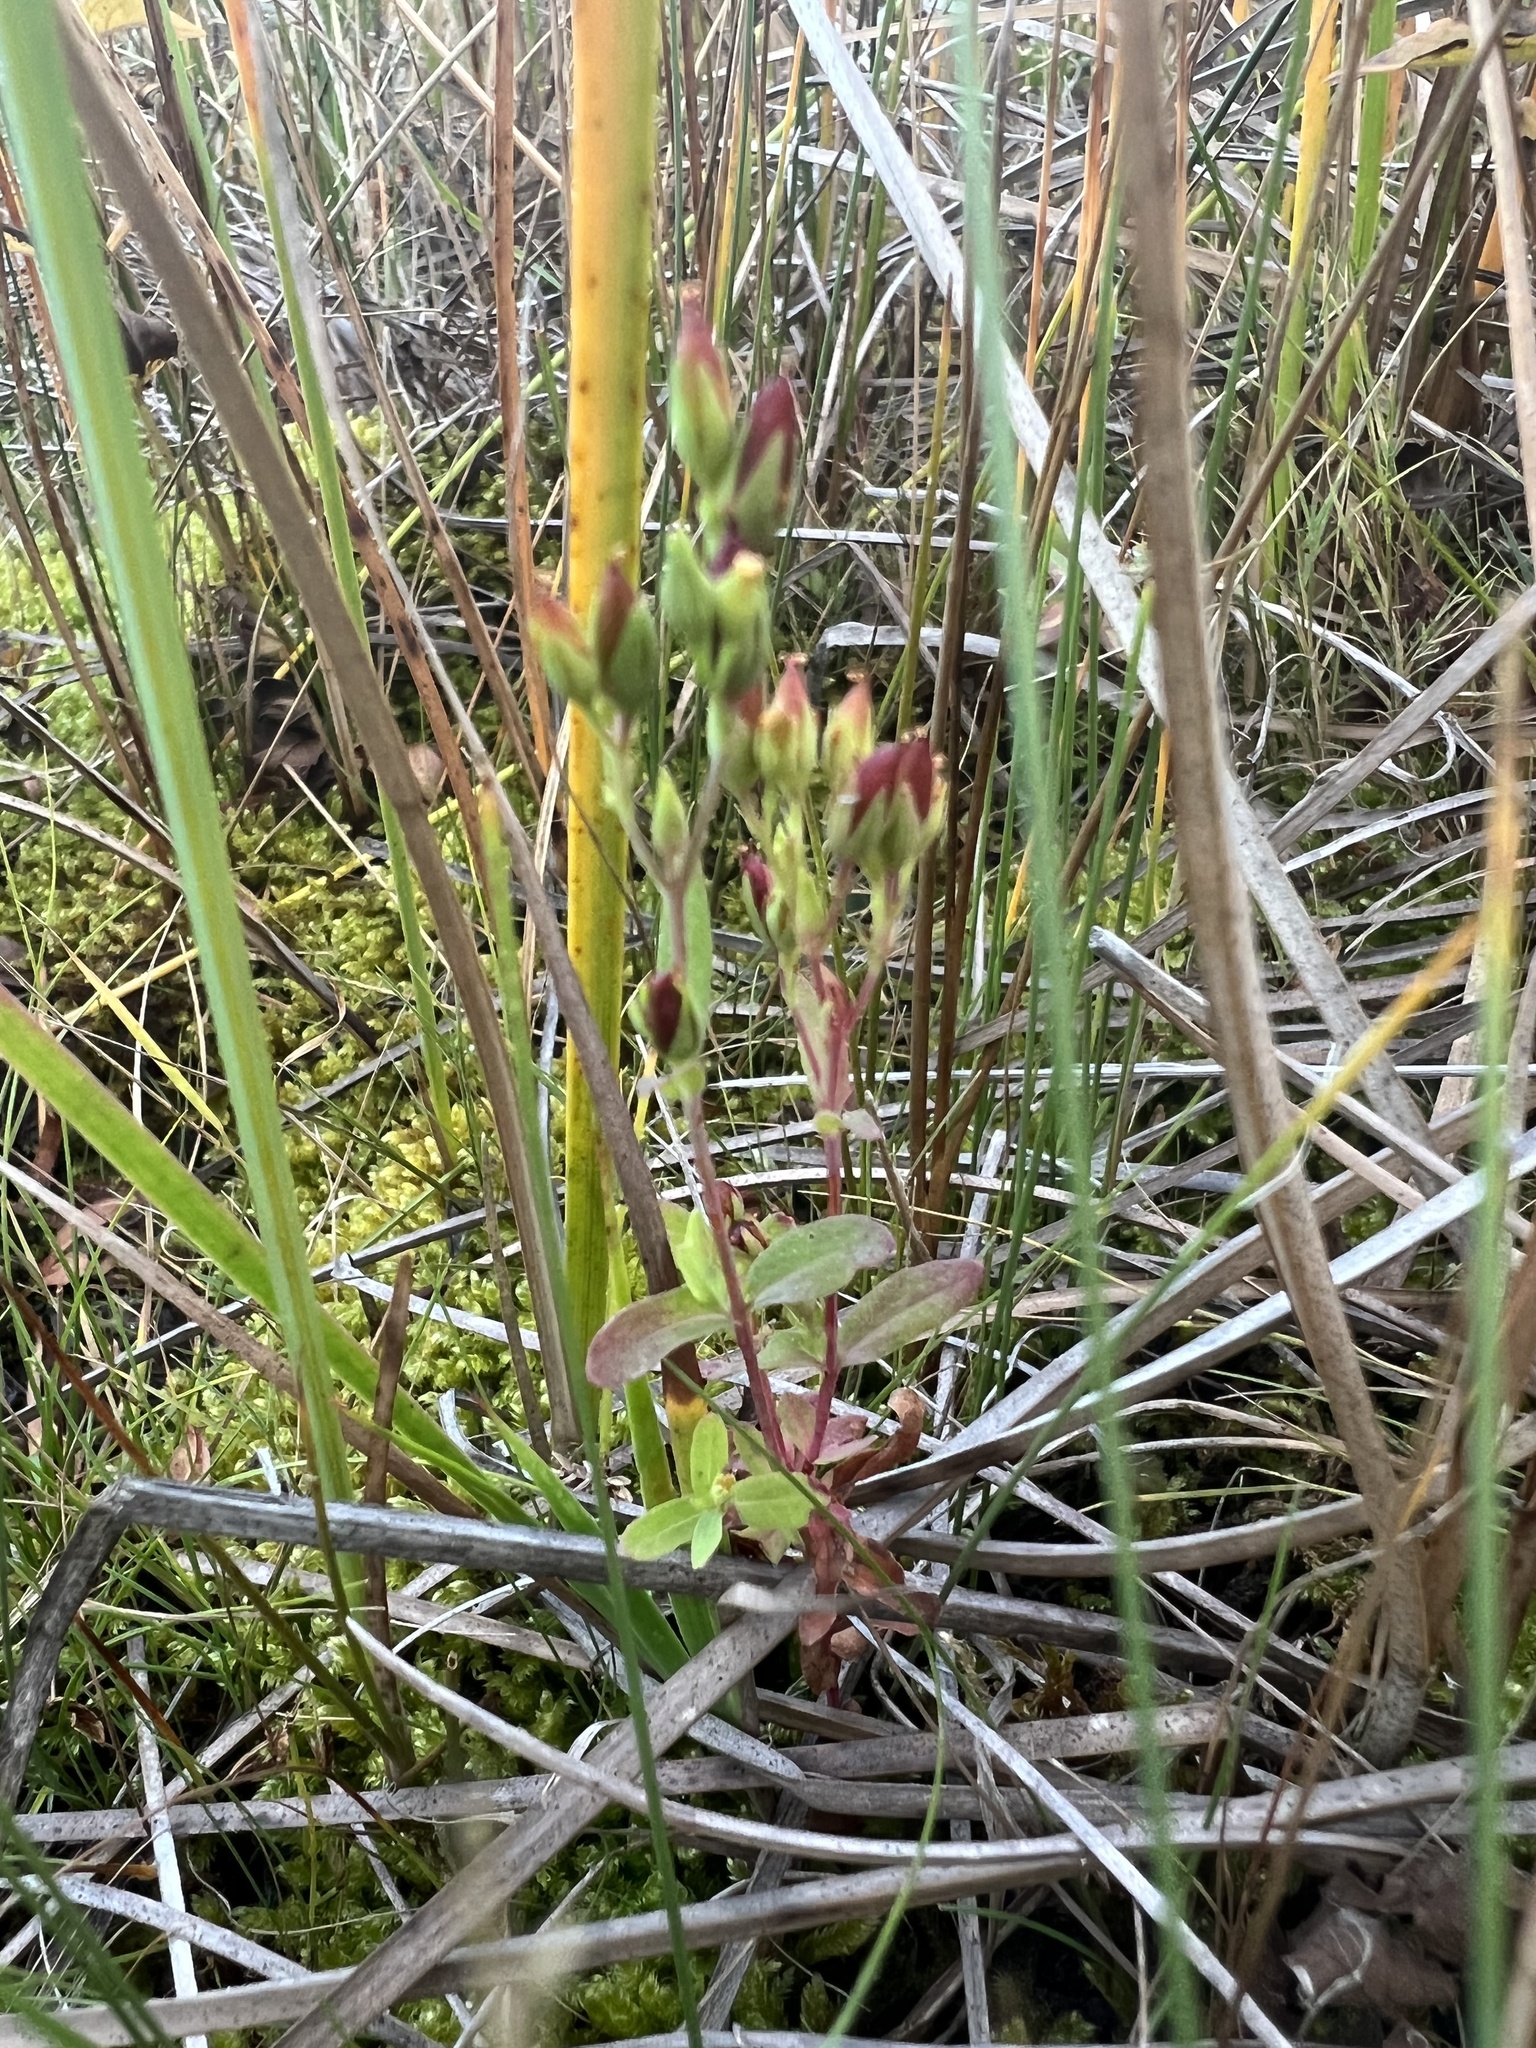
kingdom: Plantae
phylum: Tracheophyta
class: Magnoliopsida
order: Malpighiales
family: Hypericaceae
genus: Hypericum
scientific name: Hypericum majus
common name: Greater canadian st. john's-wort
